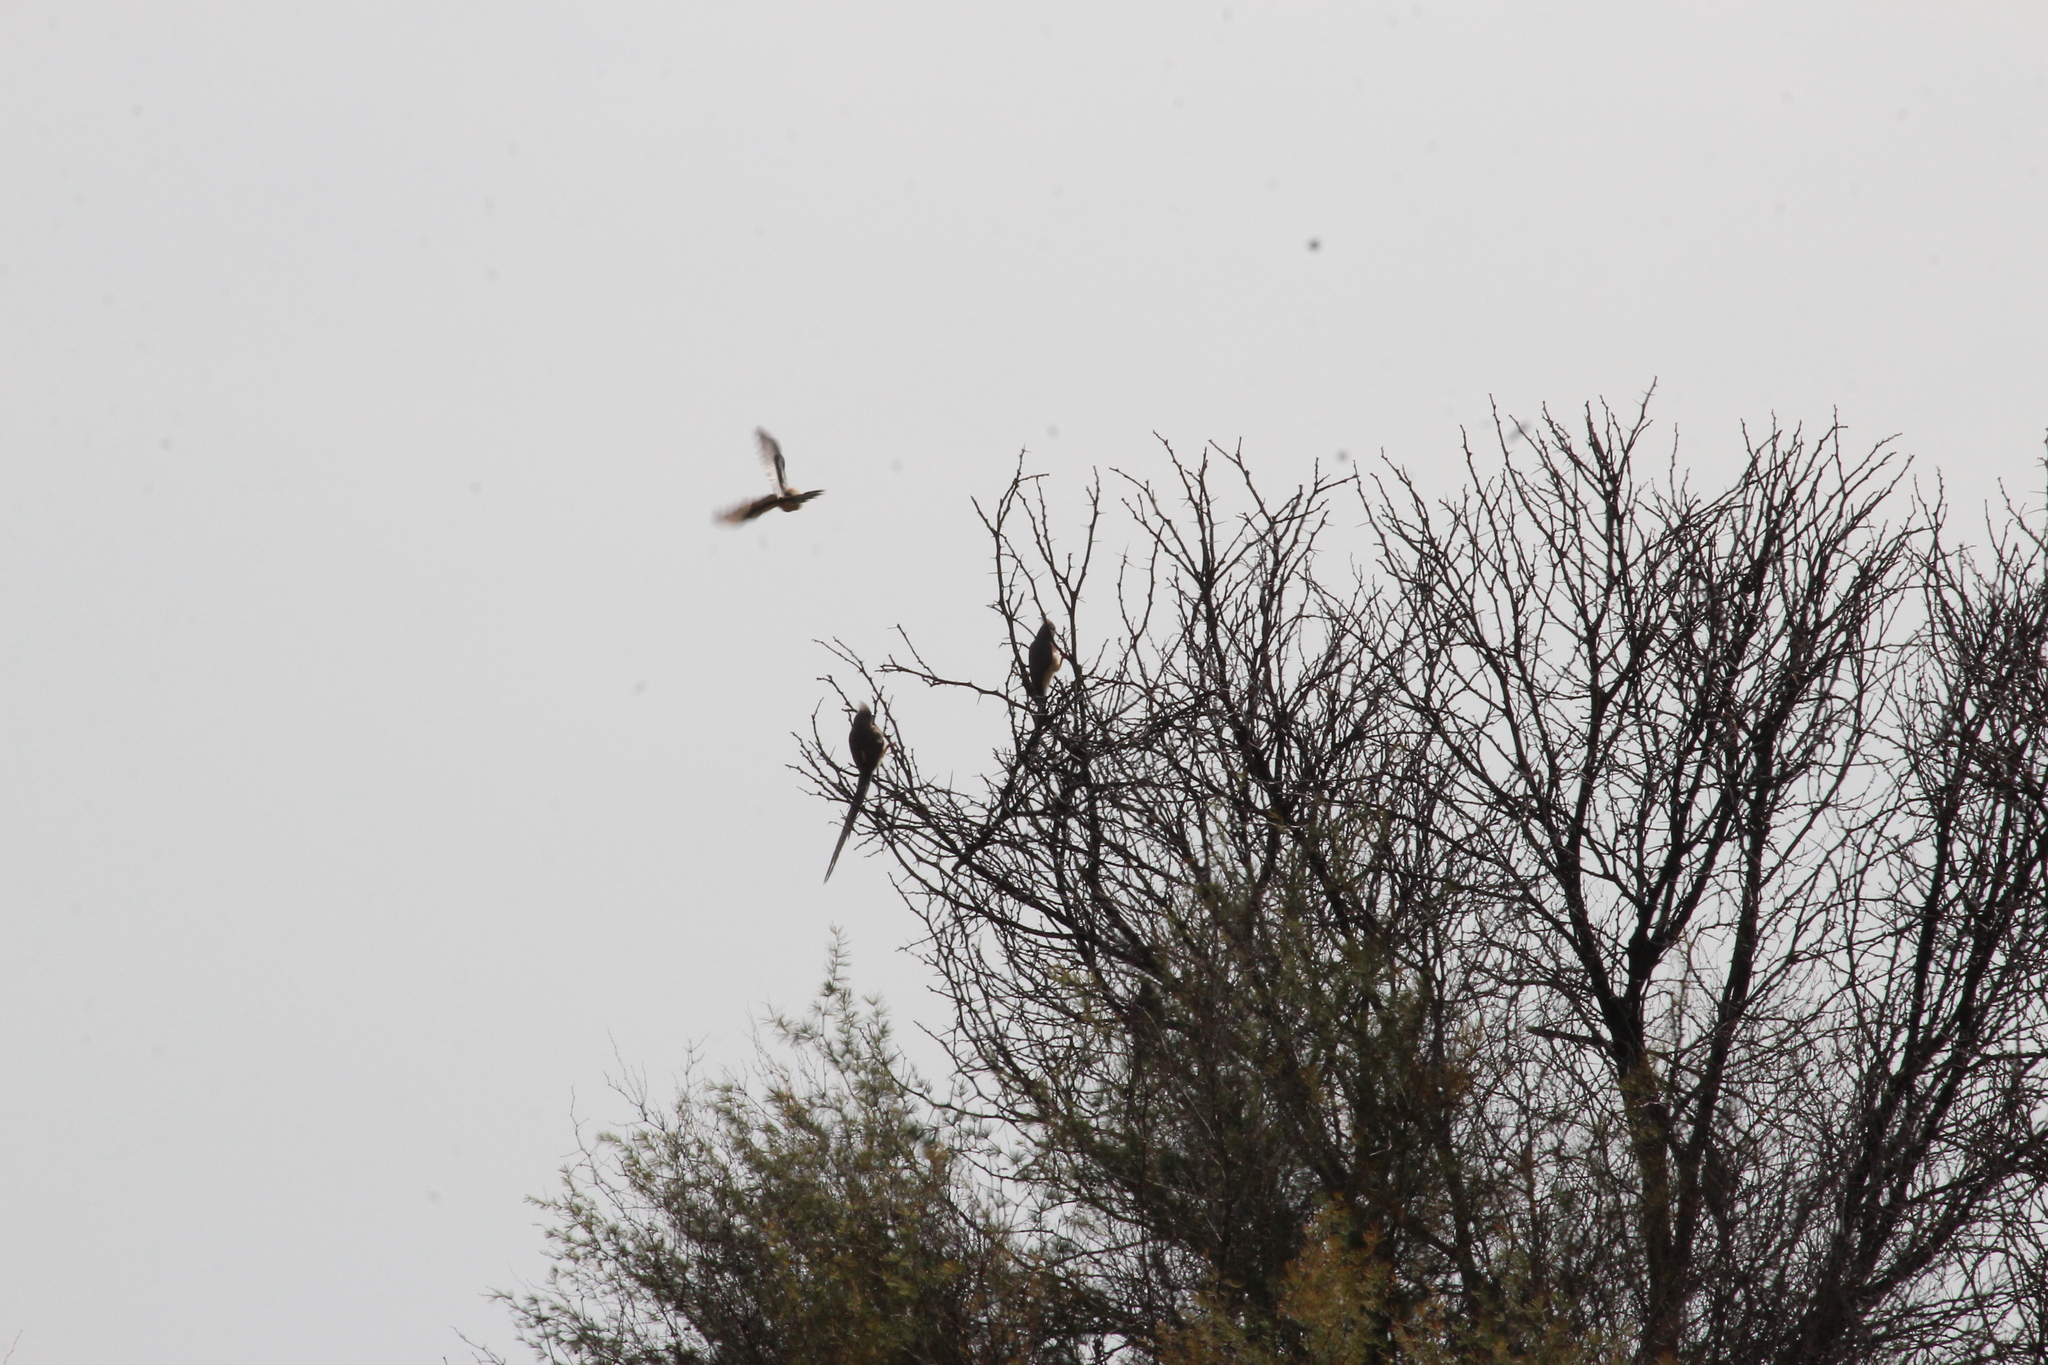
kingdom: Animalia
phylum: Chordata
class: Aves
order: Coliiformes
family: Coliidae
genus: Colius
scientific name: Colius colius
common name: White-backed mousebird
